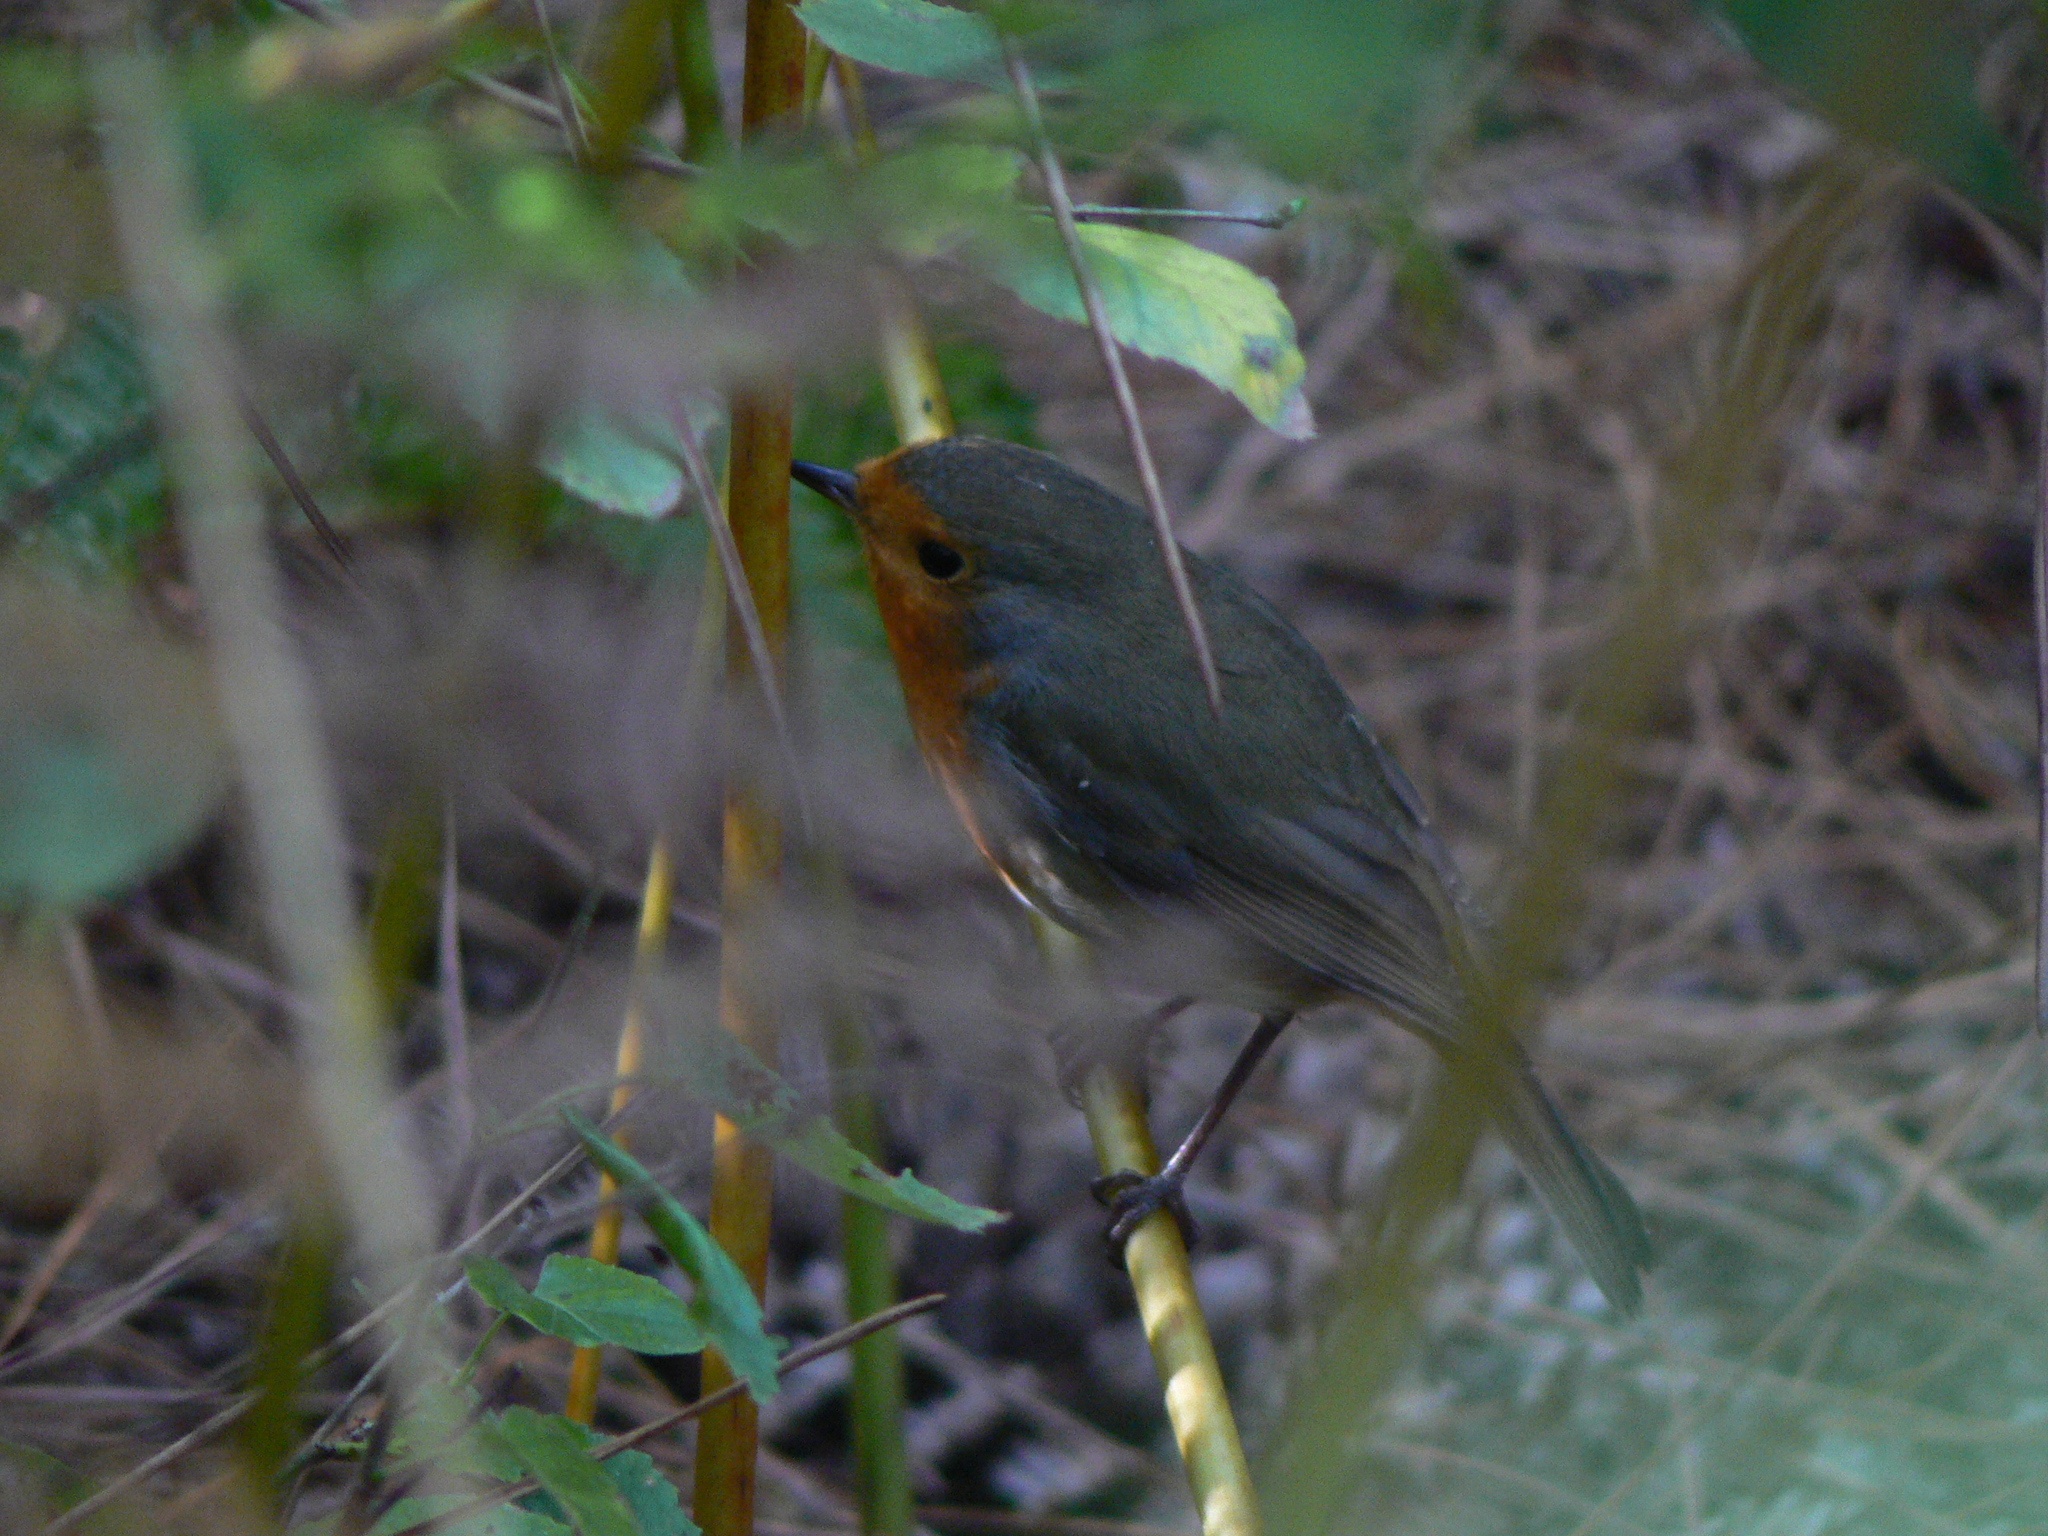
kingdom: Animalia
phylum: Chordata
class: Aves
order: Passeriformes
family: Muscicapidae
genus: Erithacus
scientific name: Erithacus rubecula
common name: European robin
